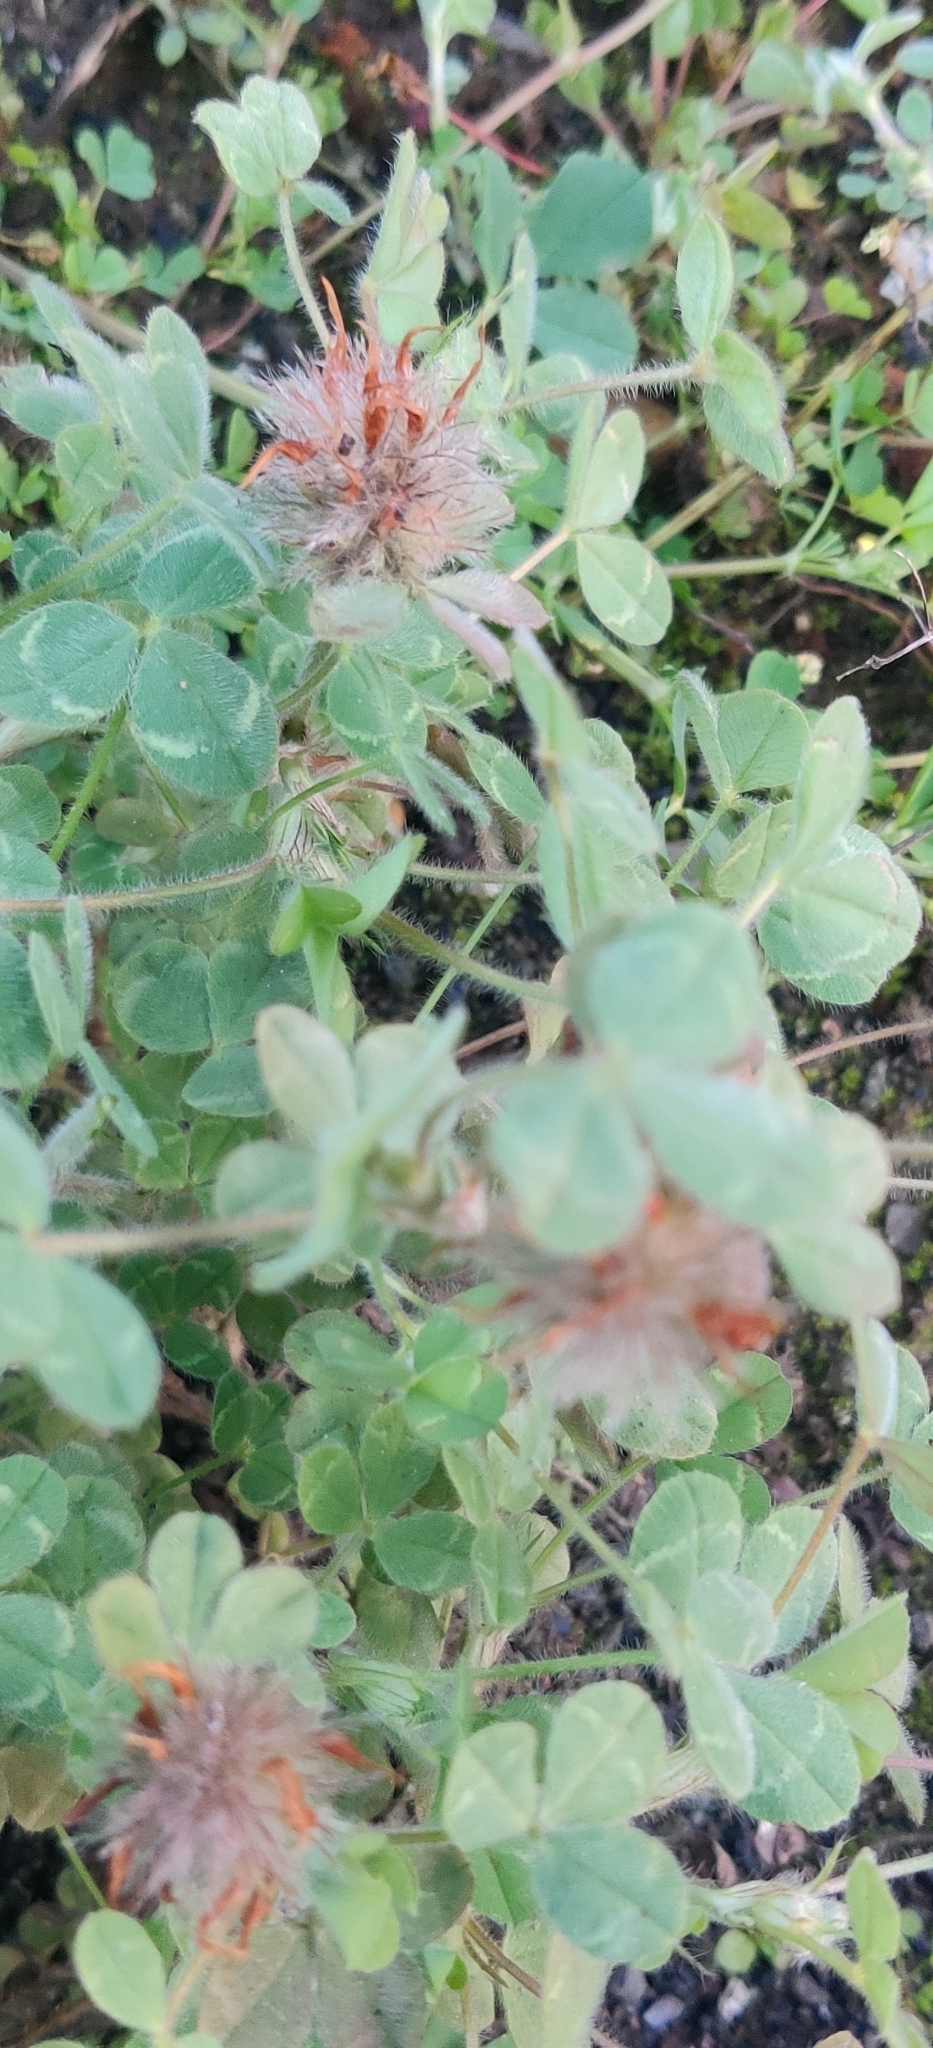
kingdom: Plantae
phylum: Tracheophyta
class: Magnoliopsida
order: Fabales
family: Fabaceae
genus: Trifolium
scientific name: Trifolium hirtum
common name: Rose clover
